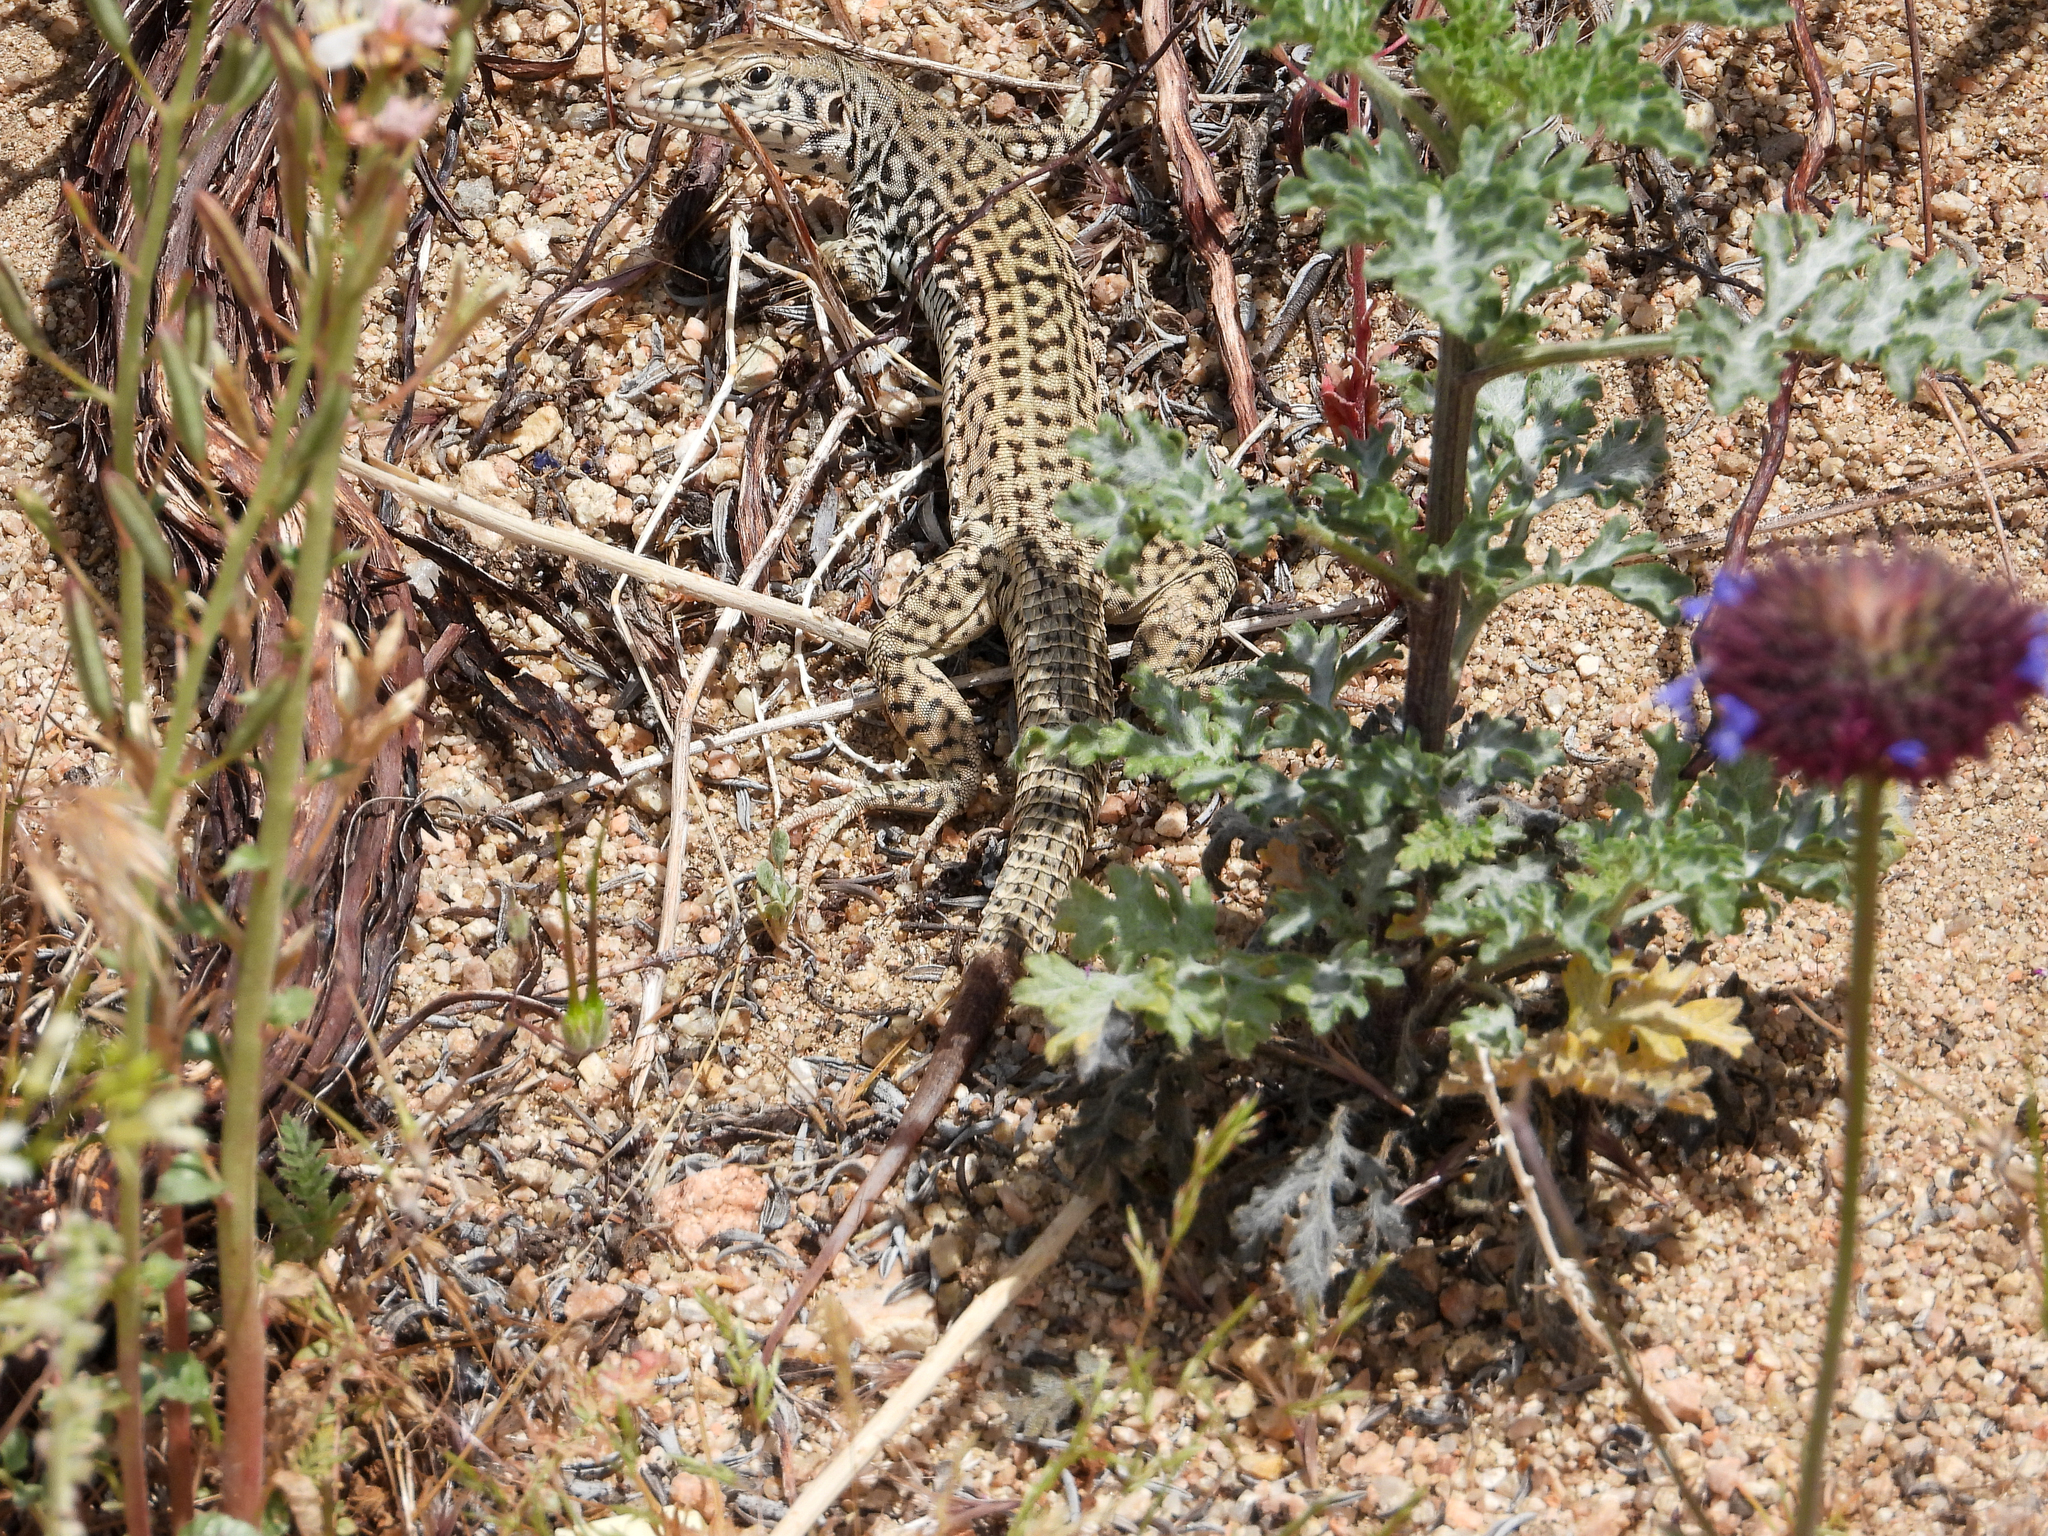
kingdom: Animalia
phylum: Chordata
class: Squamata
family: Teiidae
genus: Aspidoscelis
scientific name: Aspidoscelis tigris
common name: Tiger whiptail
